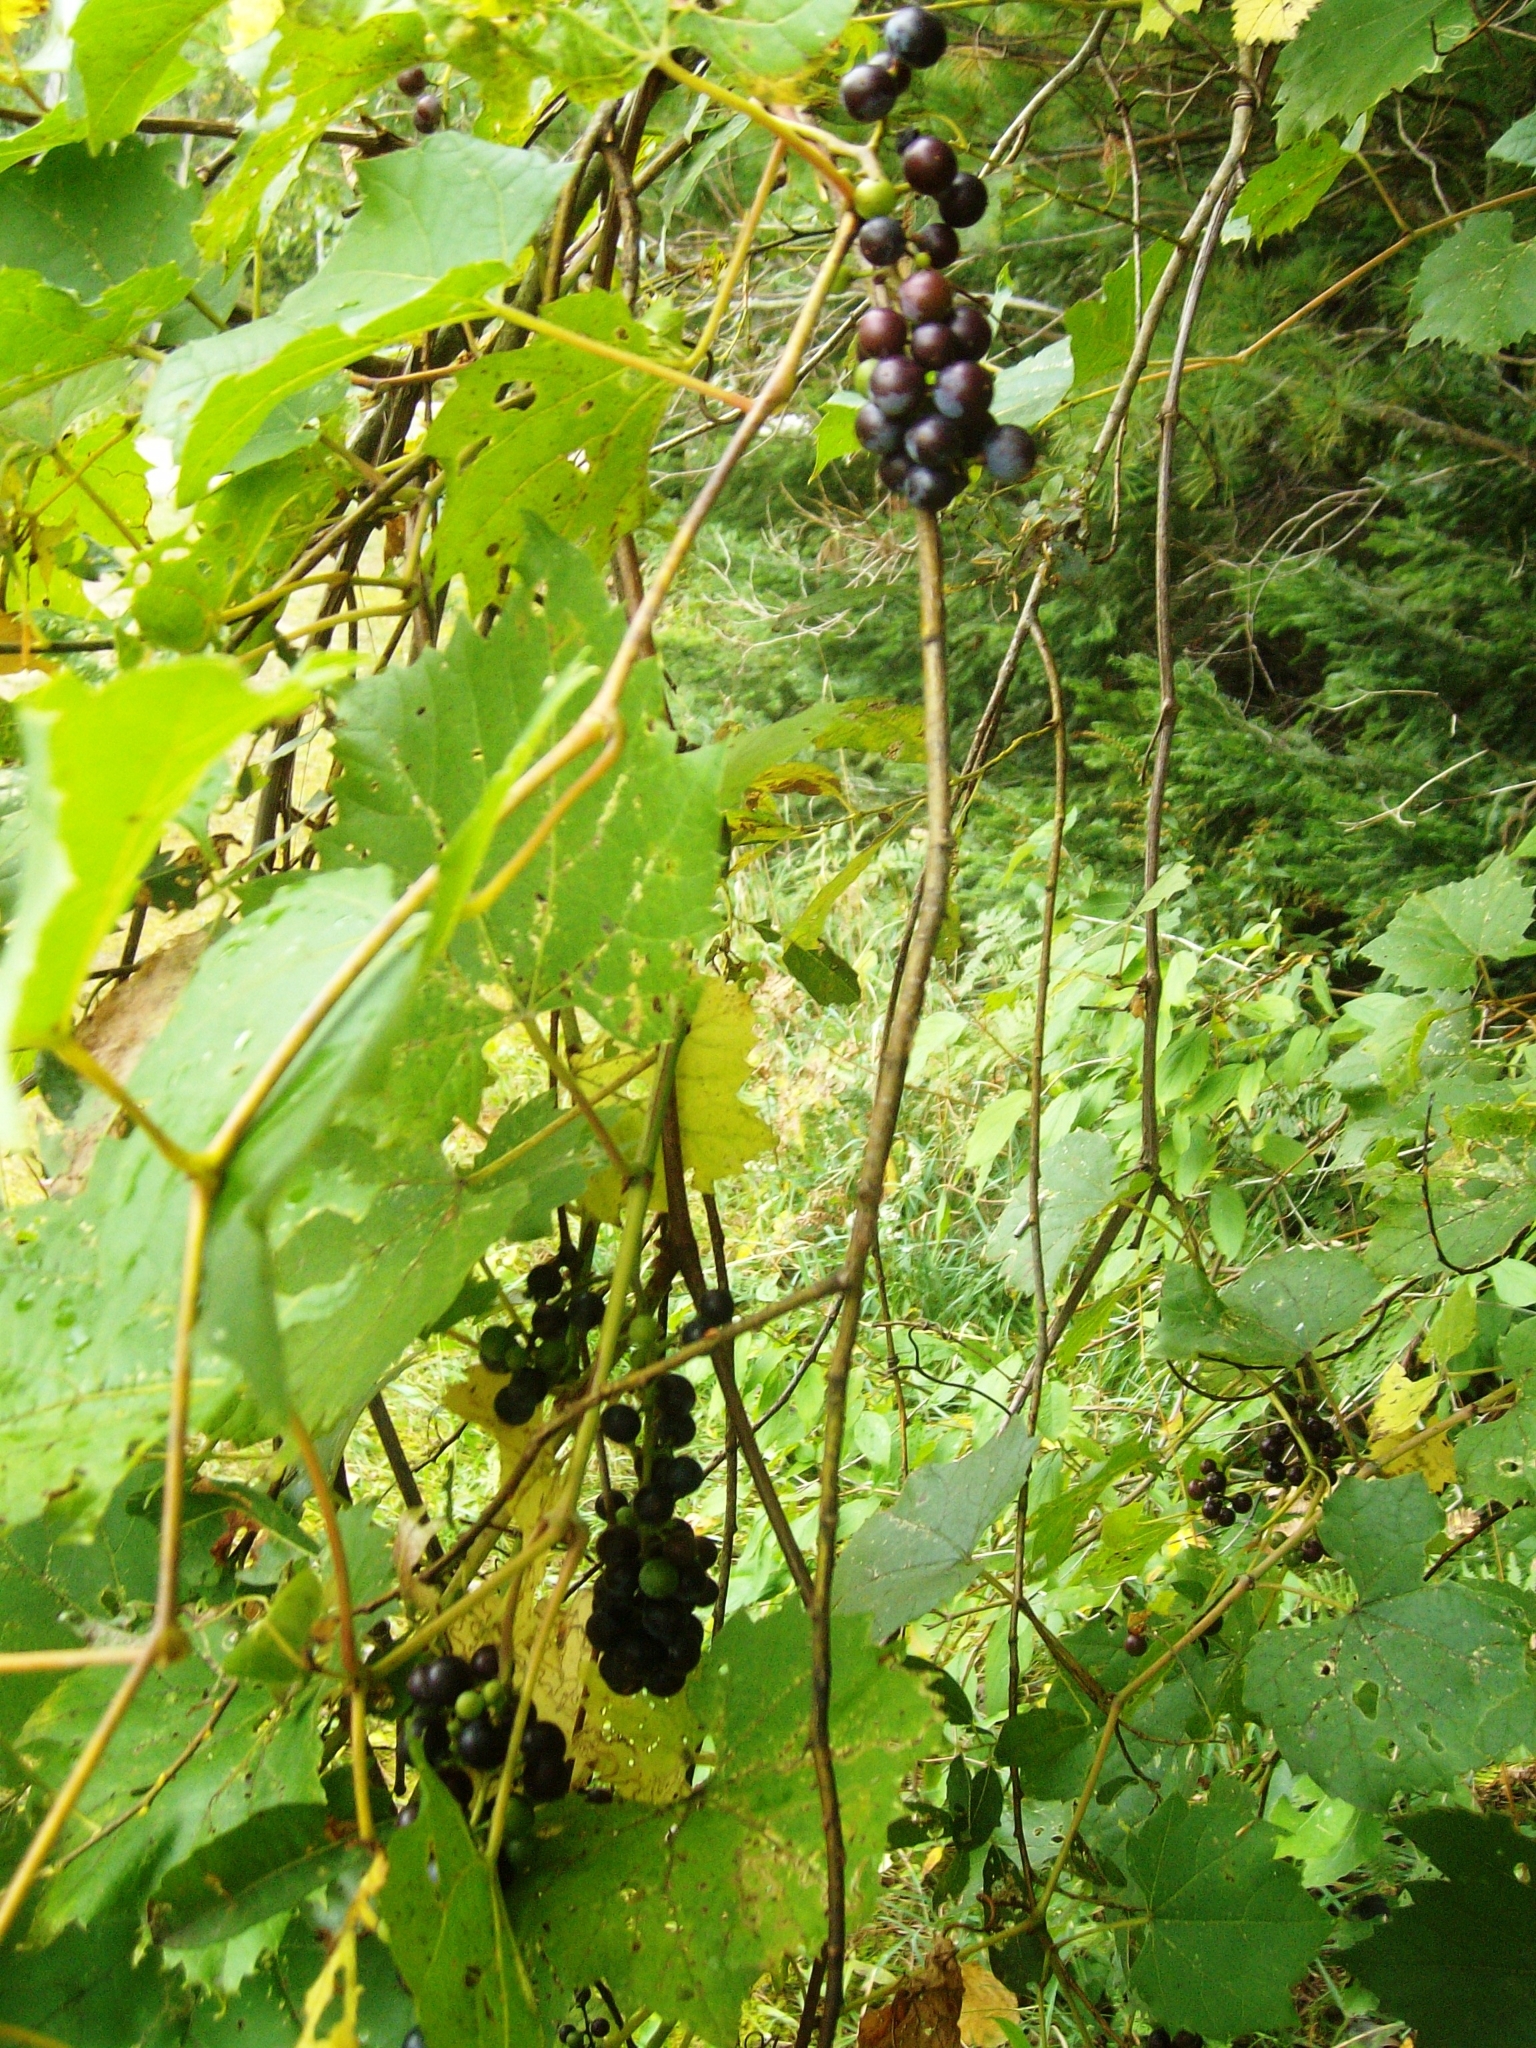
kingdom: Plantae
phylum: Tracheophyta
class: Magnoliopsida
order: Vitales
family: Vitaceae
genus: Vitis
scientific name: Vitis riparia
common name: Frost grape
